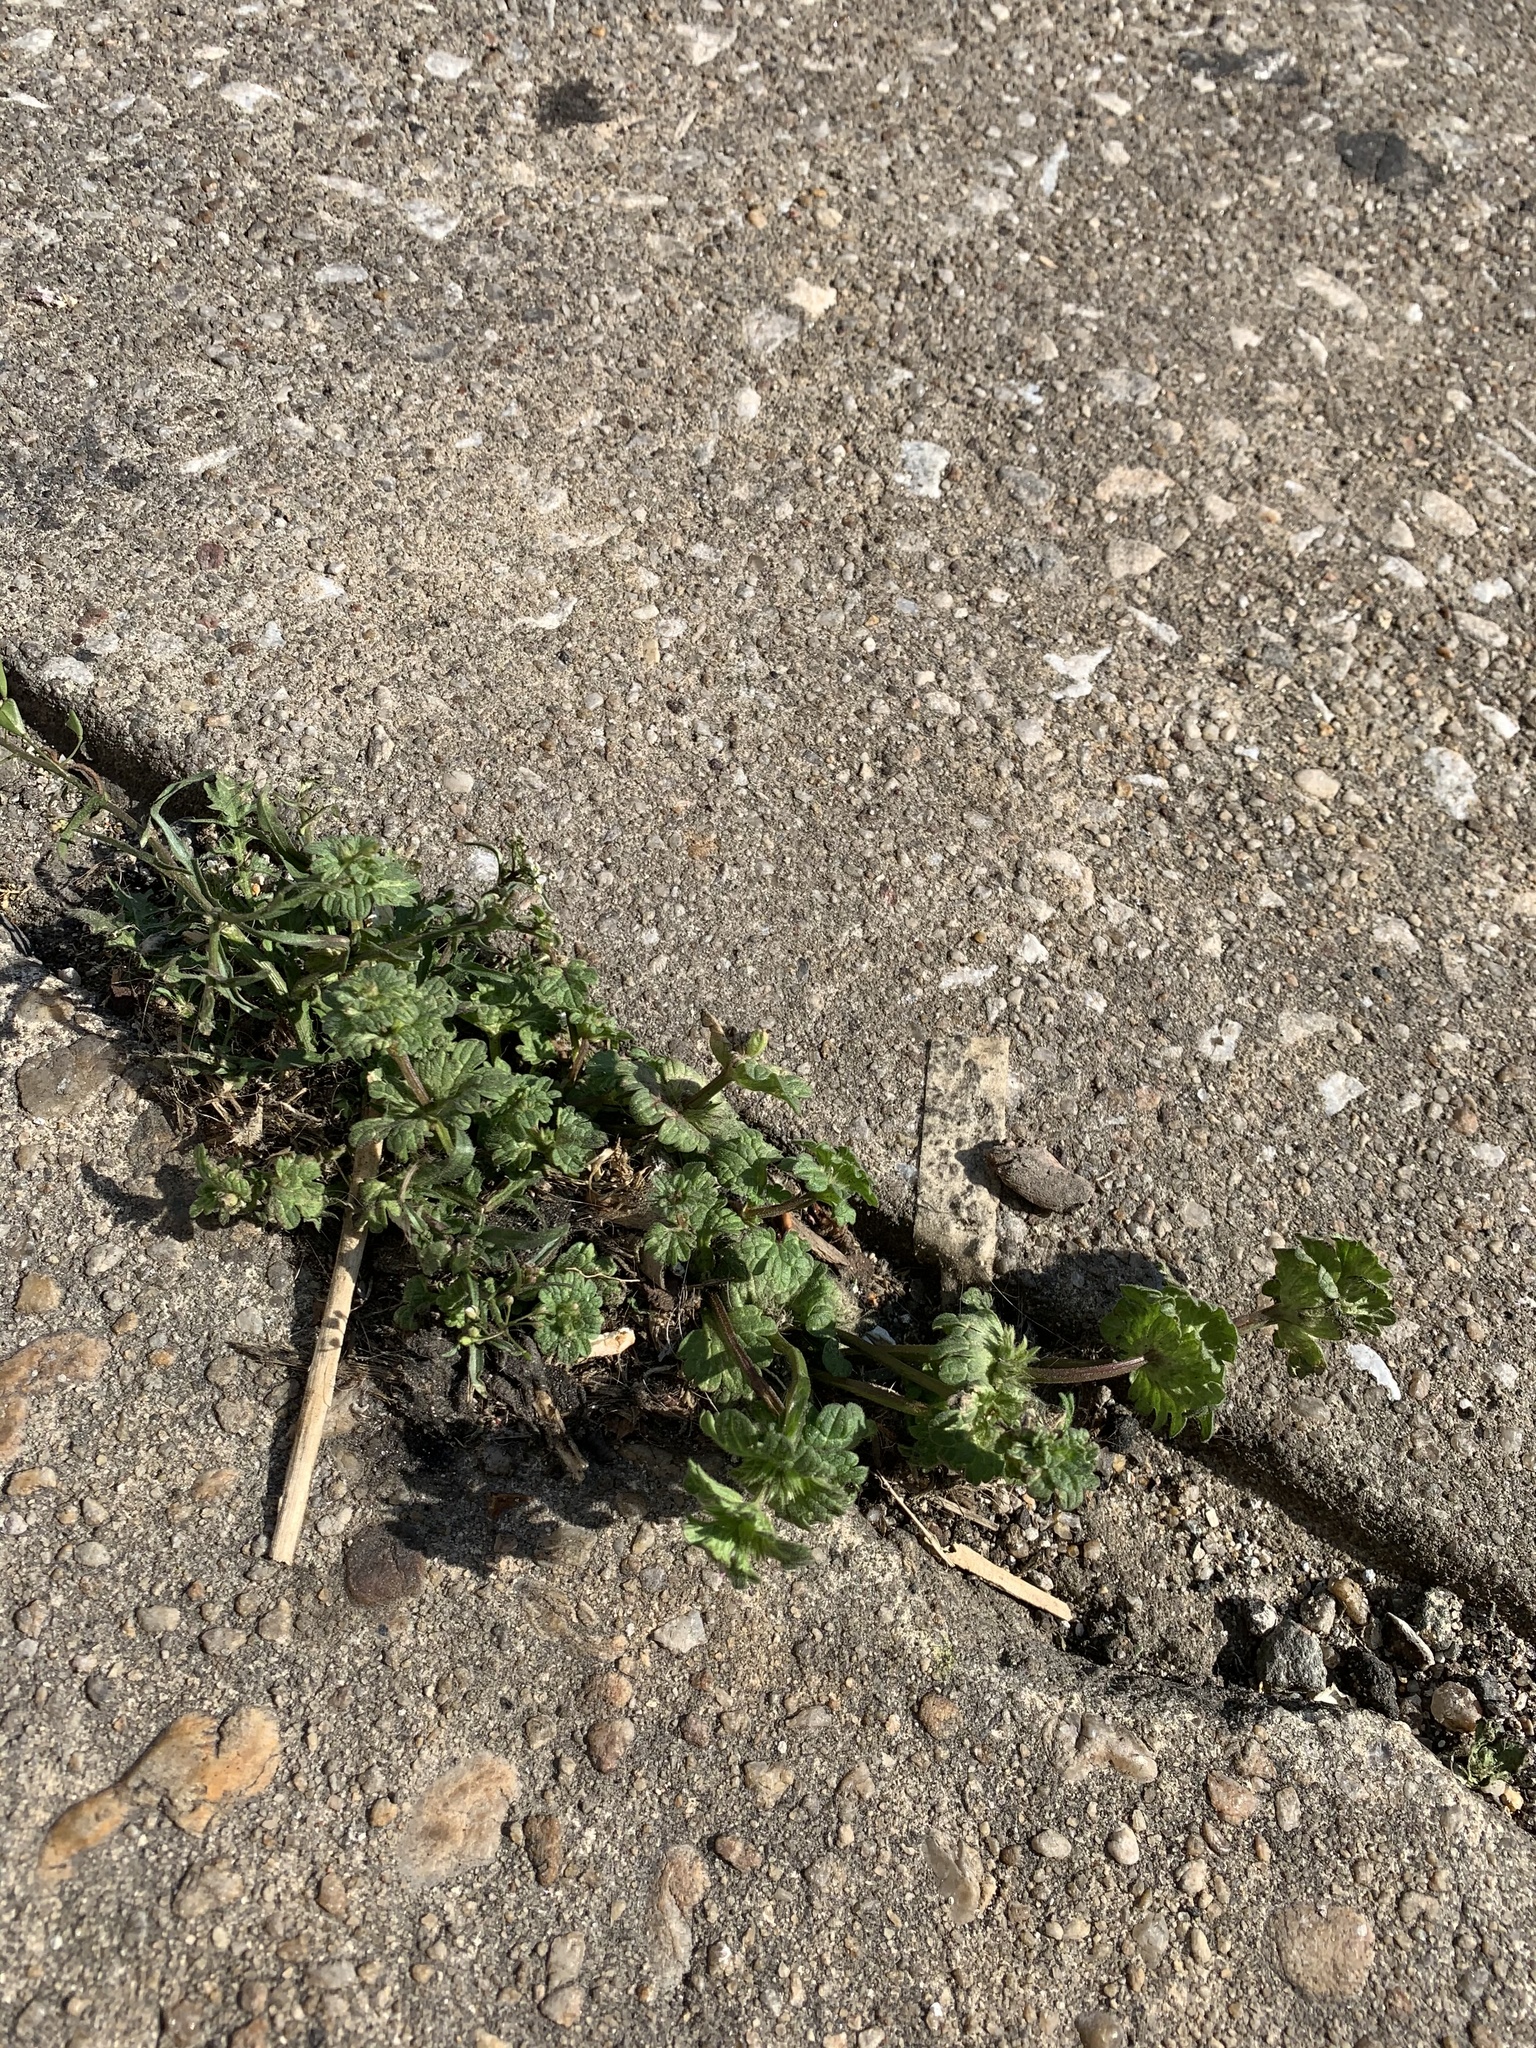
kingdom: Plantae
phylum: Tracheophyta
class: Magnoliopsida
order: Lamiales
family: Lamiaceae
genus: Lamium
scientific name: Lamium amplexicaule
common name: Henbit dead-nettle
